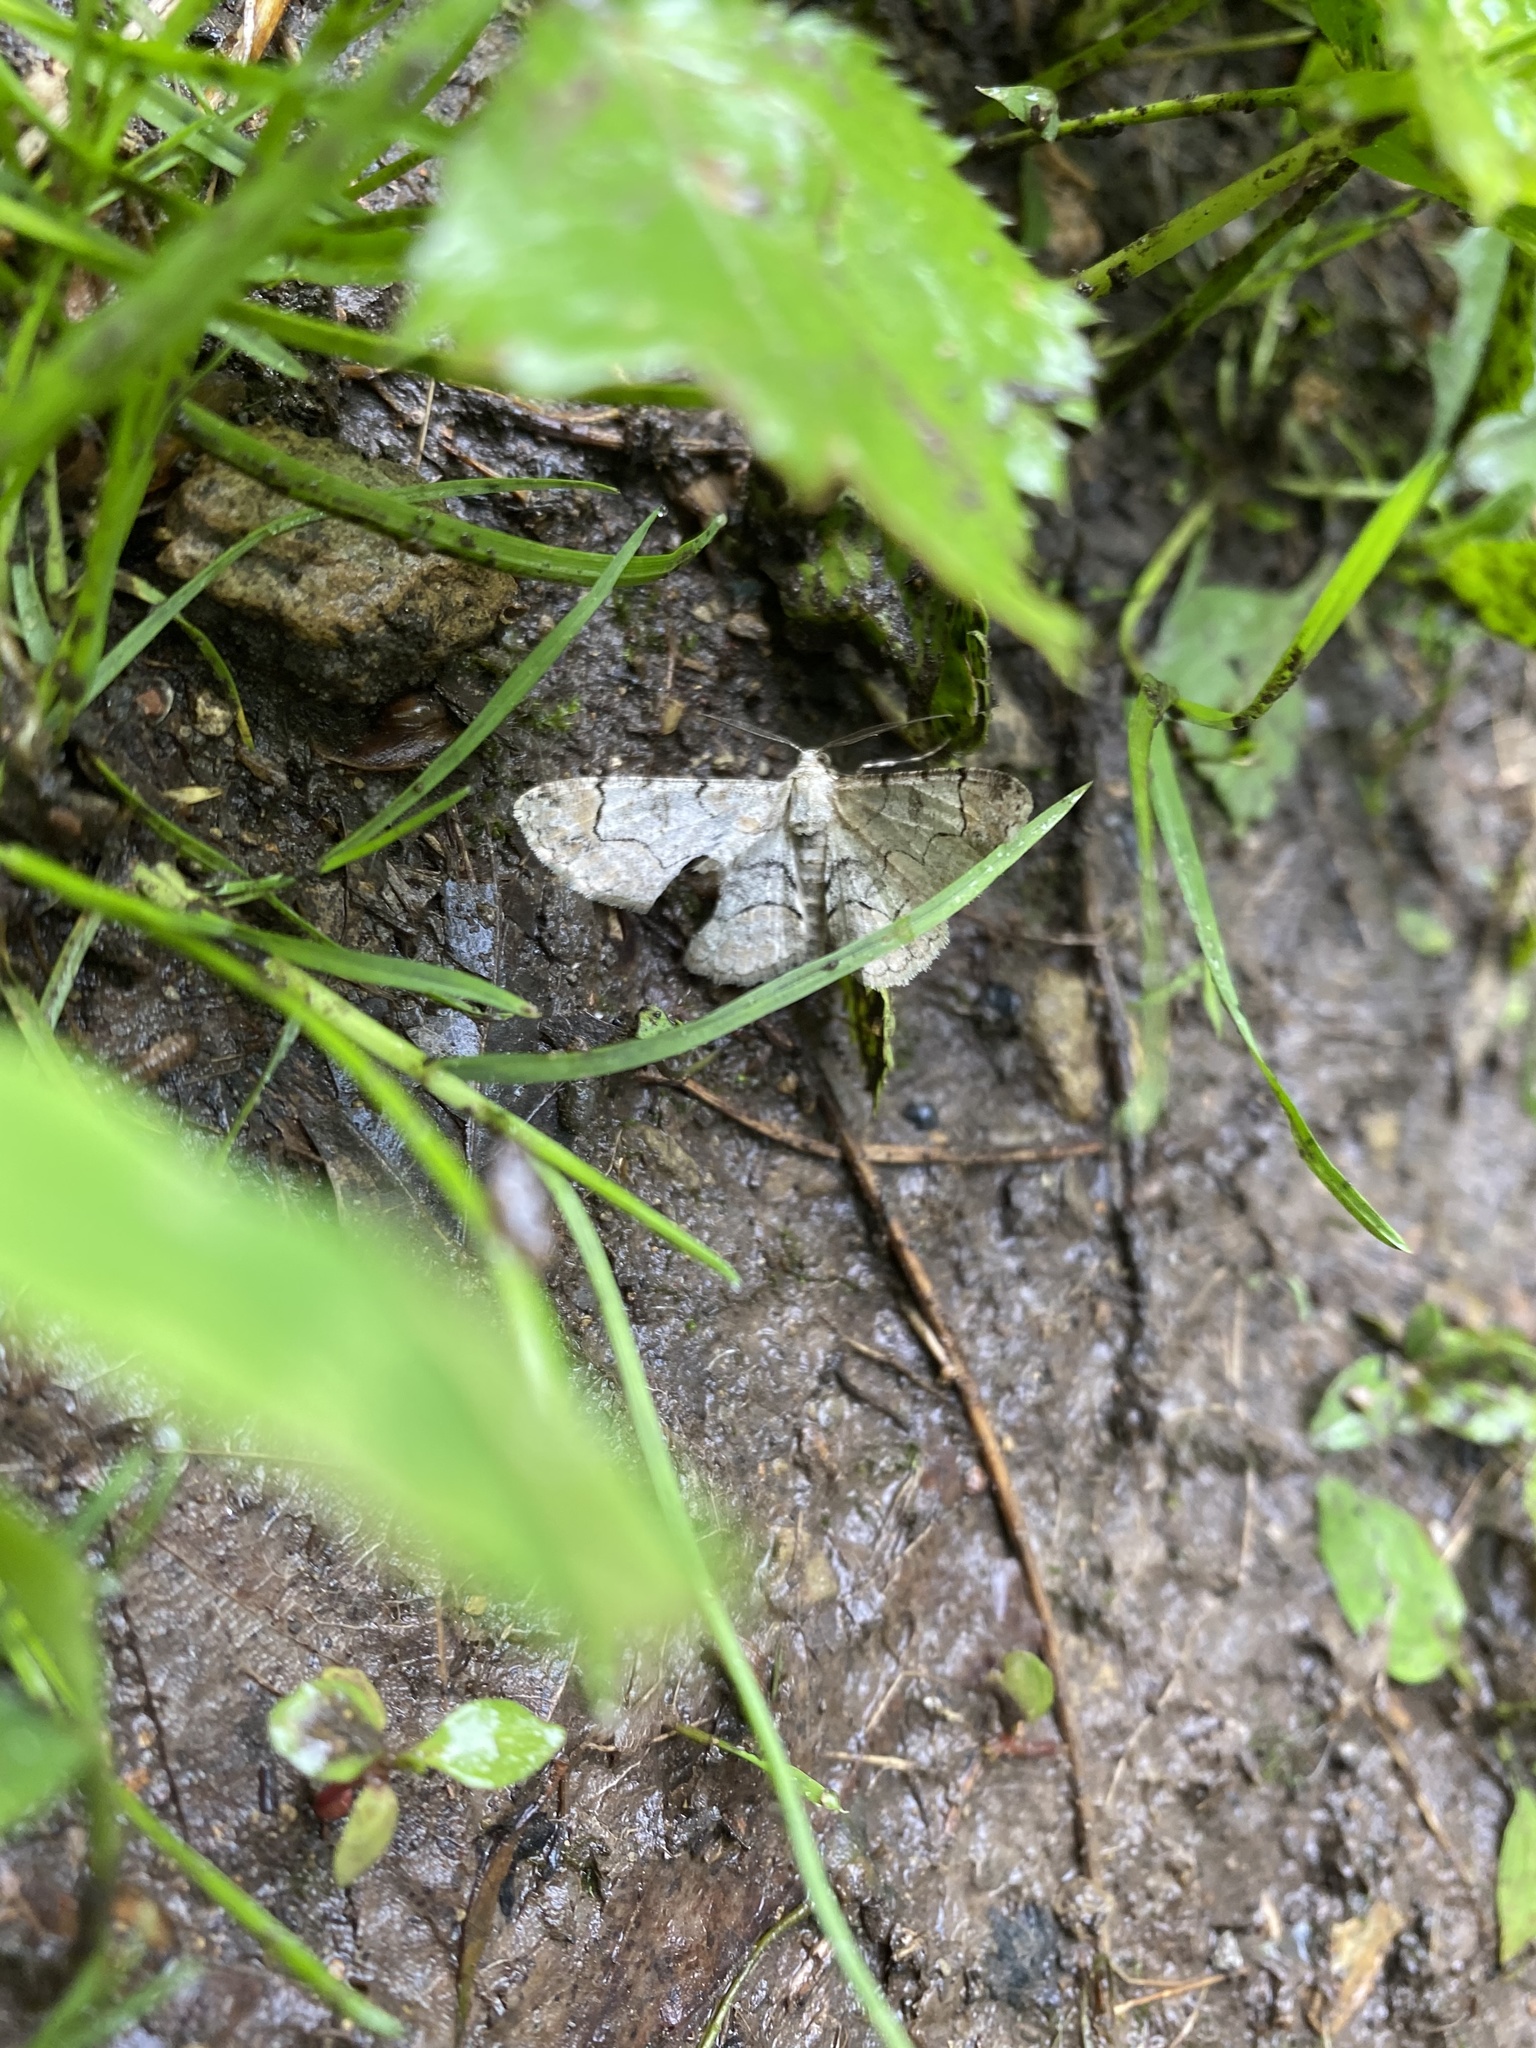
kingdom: Animalia
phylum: Arthropoda
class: Insecta
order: Lepidoptera
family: Geometridae
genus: Iridopsis
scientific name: Iridopsis larvaria
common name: Bent-line gray
